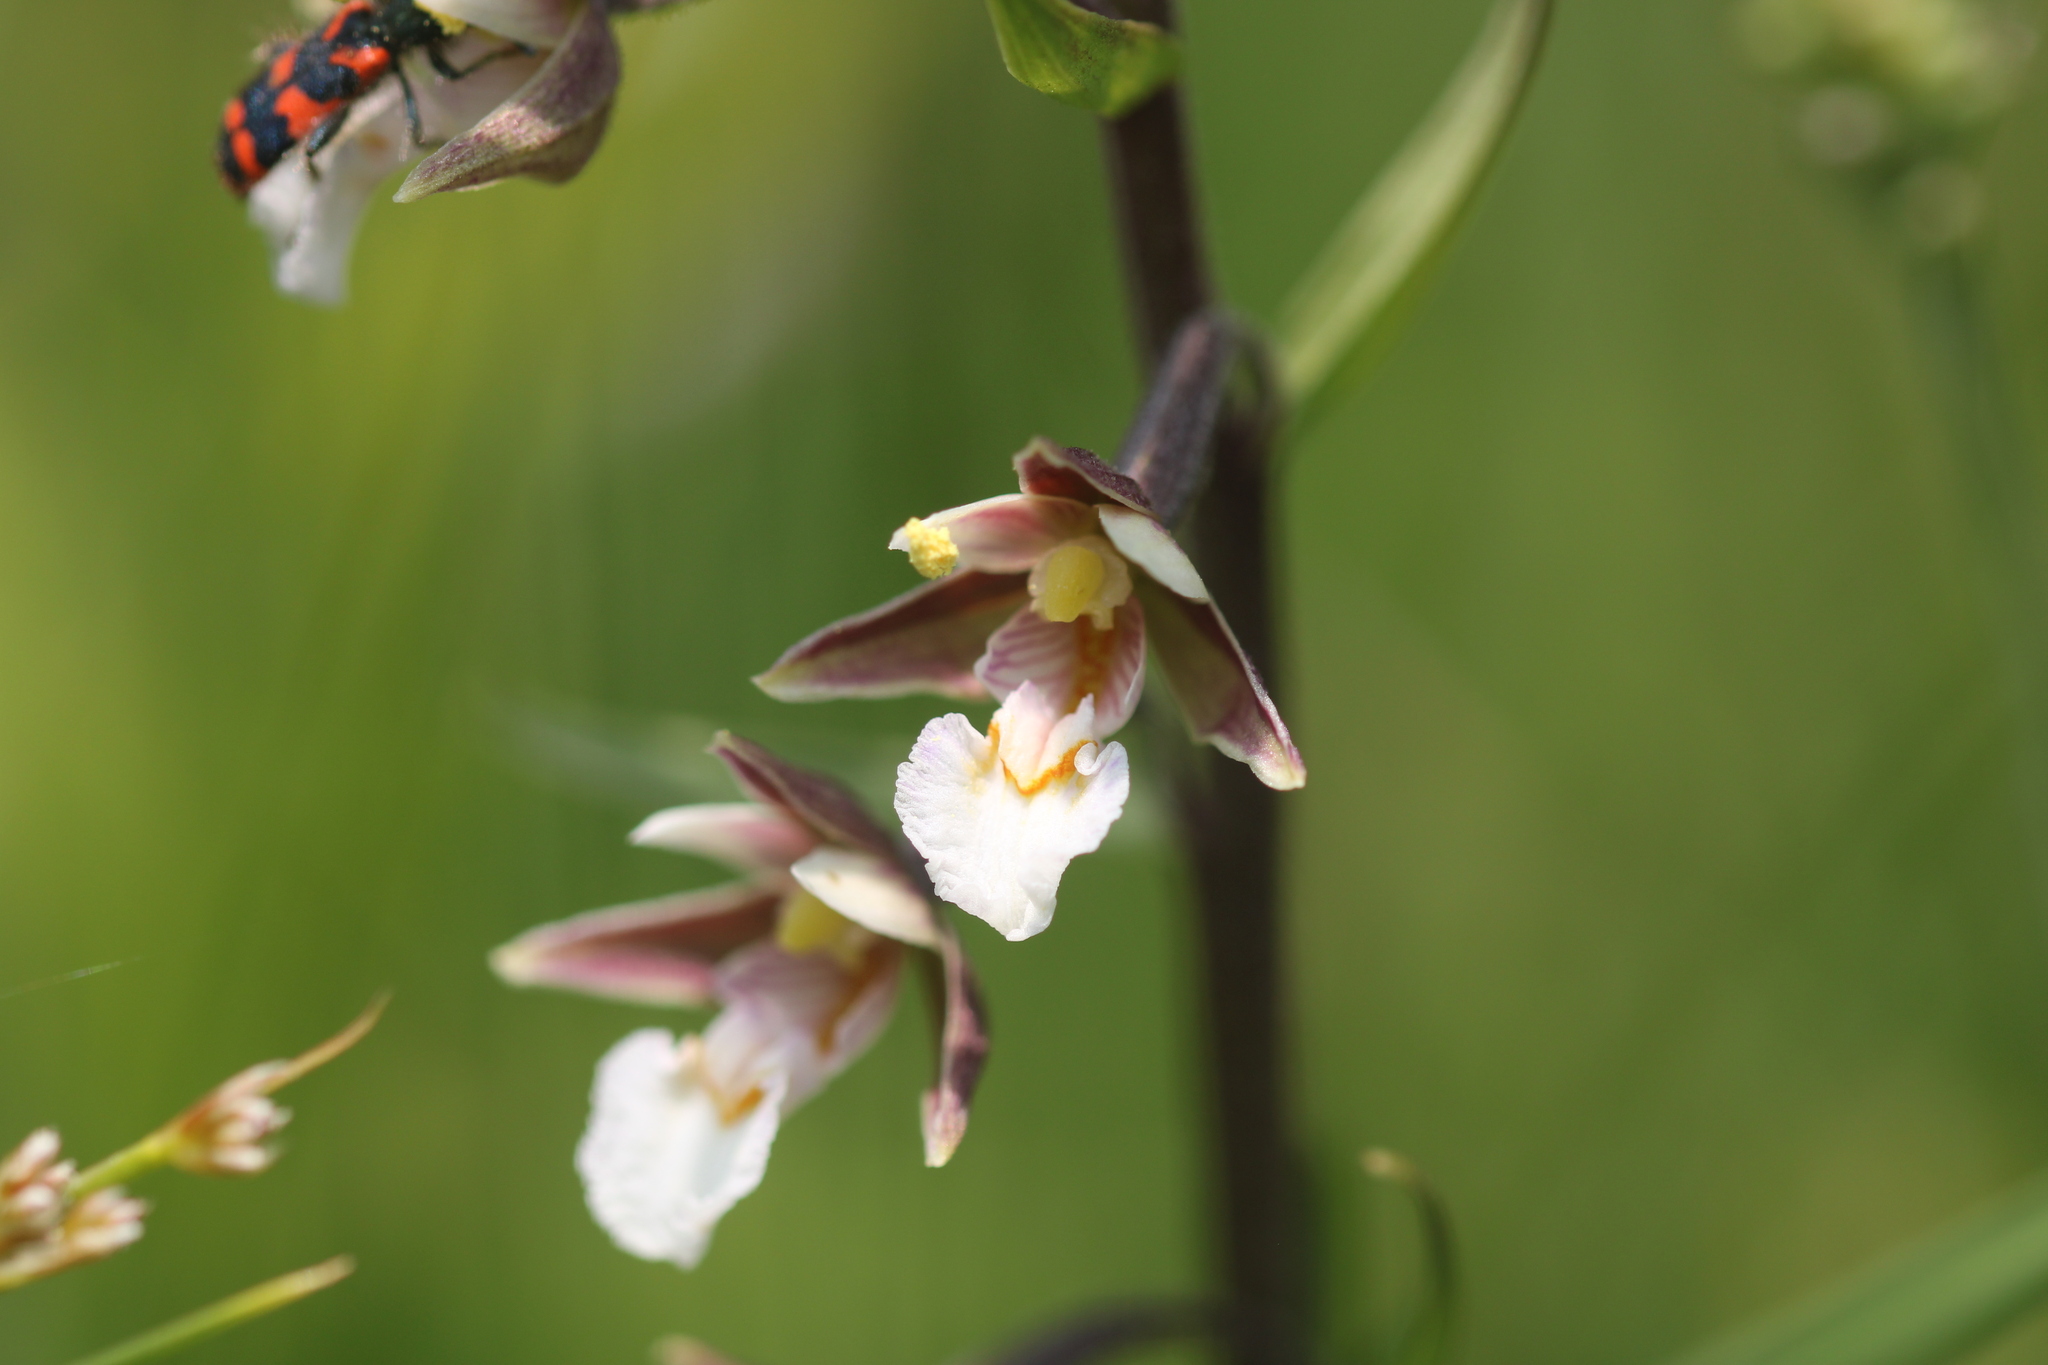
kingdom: Plantae
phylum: Tracheophyta
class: Liliopsida
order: Asparagales
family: Orchidaceae
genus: Epipactis
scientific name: Epipactis palustris
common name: Marsh helleborine
